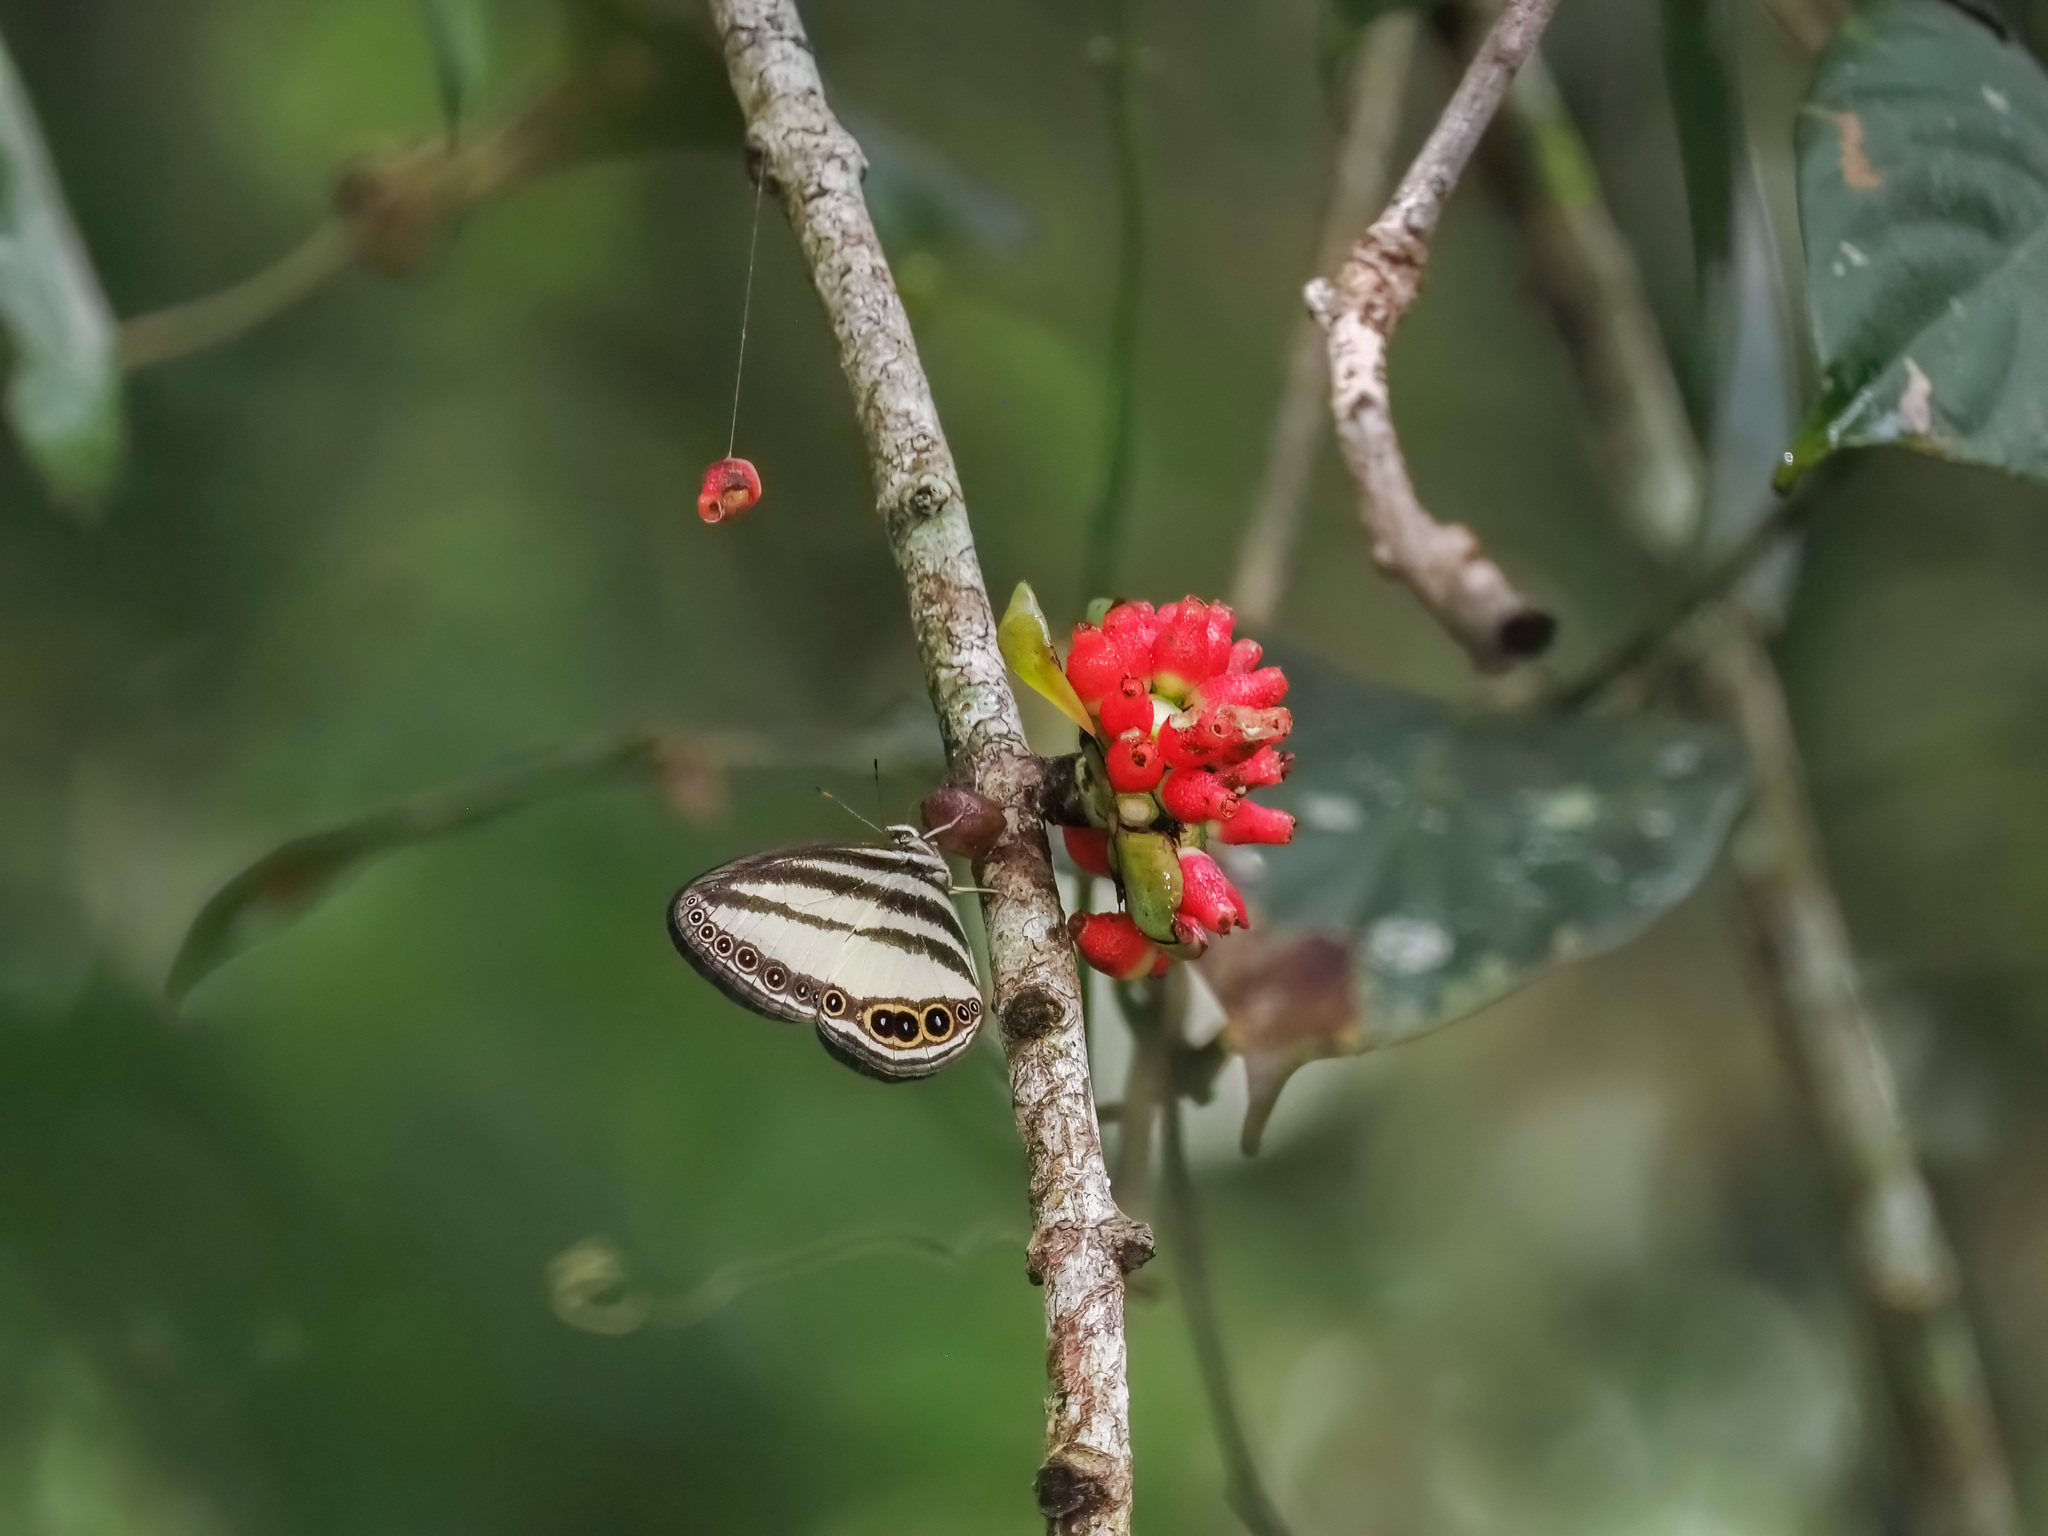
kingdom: Animalia
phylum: Arthropoda
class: Insecta
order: Lepidoptera
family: Nymphalidae
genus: Ragadia
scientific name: Ragadia annulata
